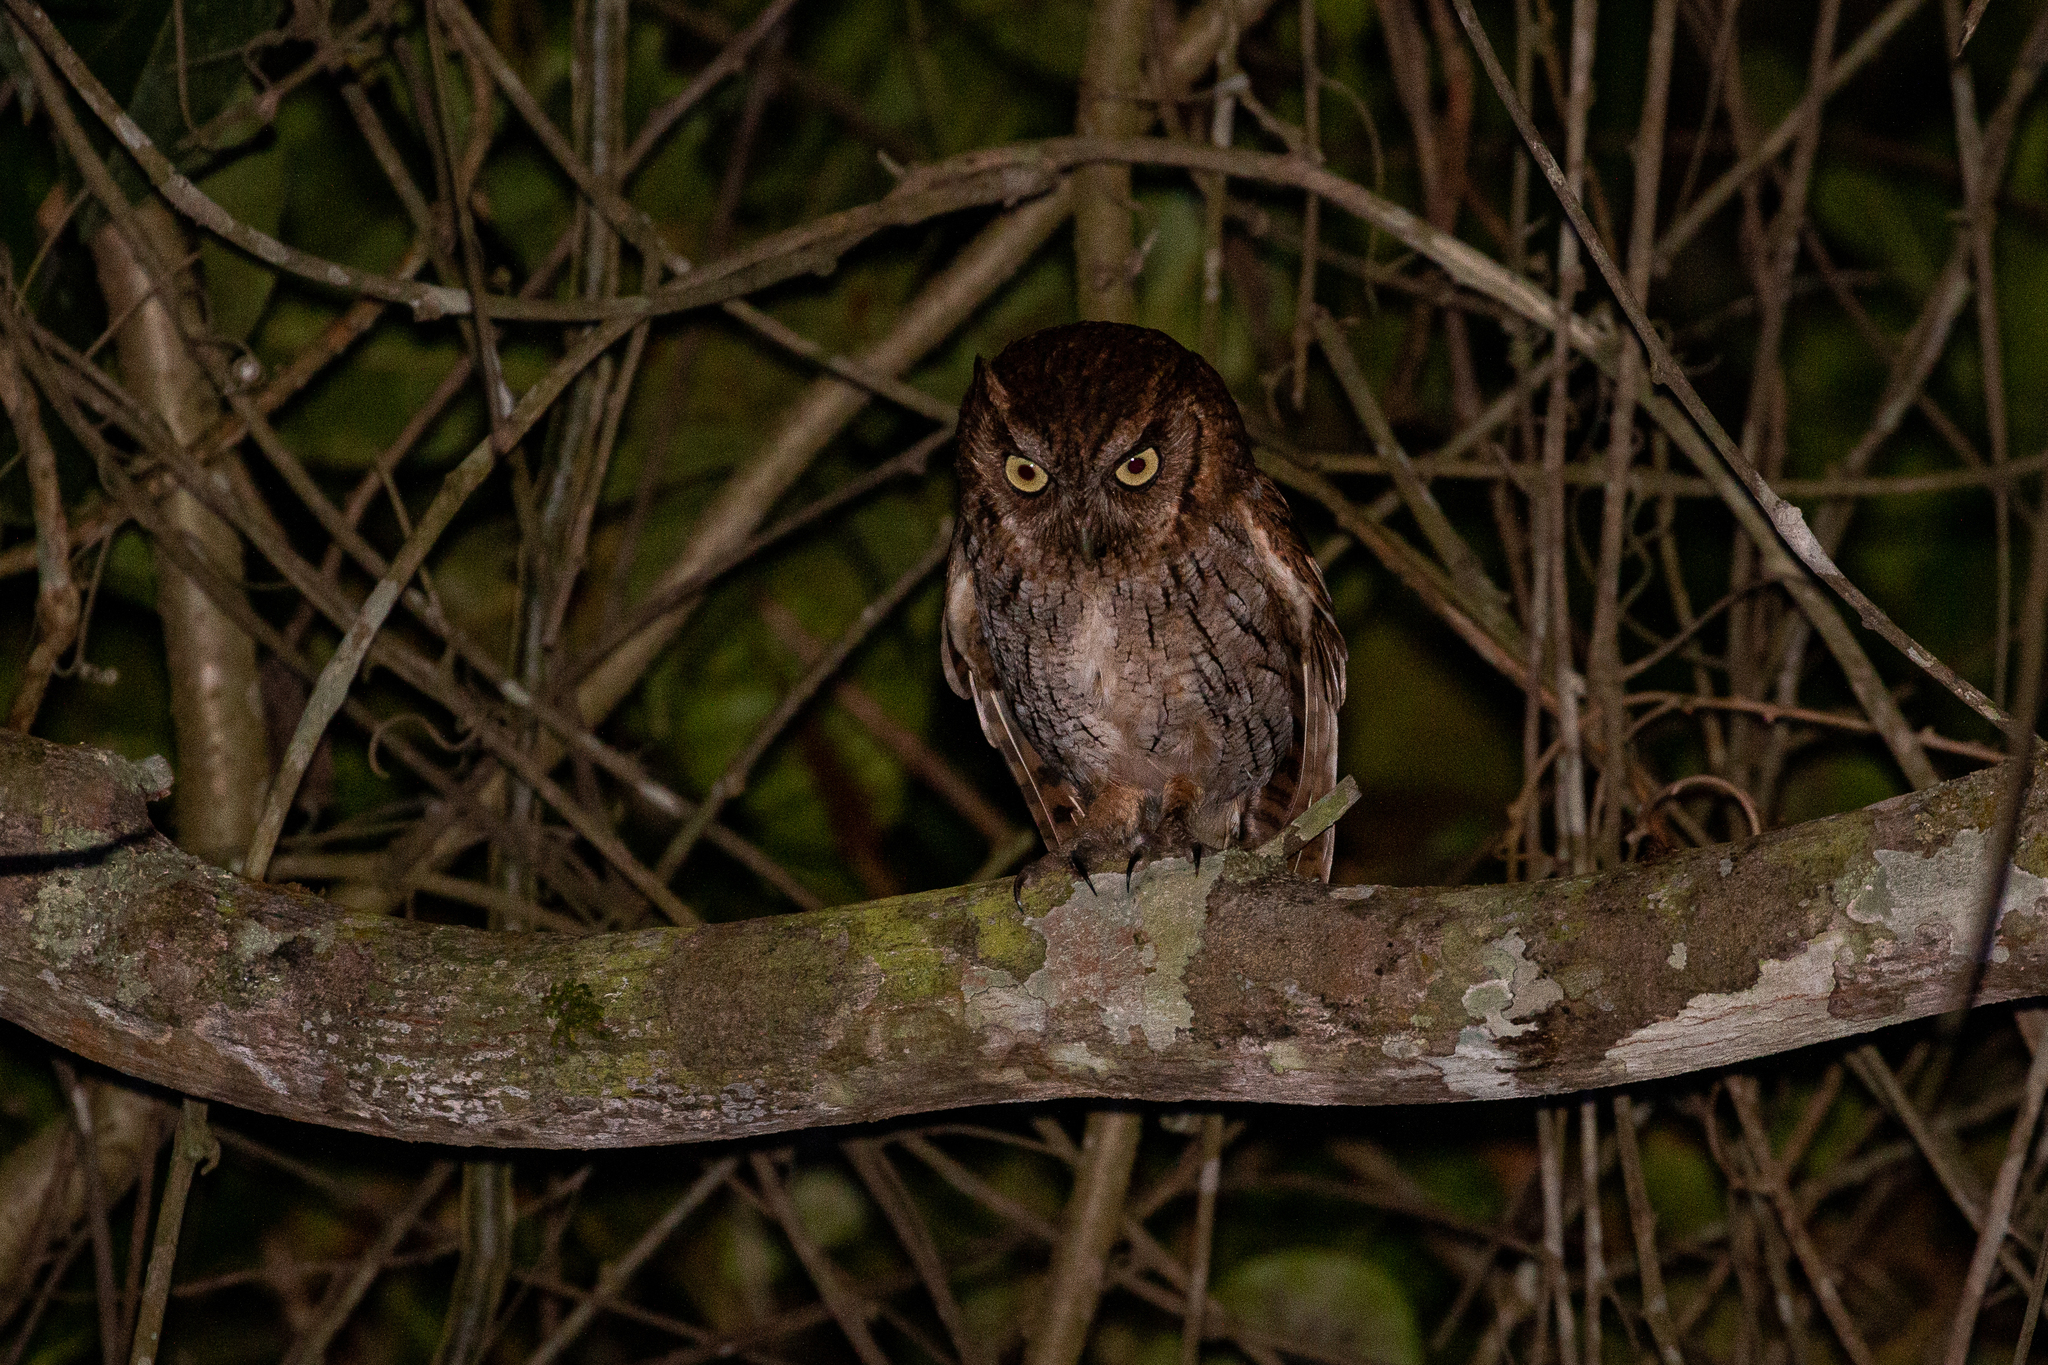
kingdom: Animalia
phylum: Chordata
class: Aves
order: Strigiformes
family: Strigidae
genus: Megascops
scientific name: Megascops choliba
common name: Tropical screech-owl
